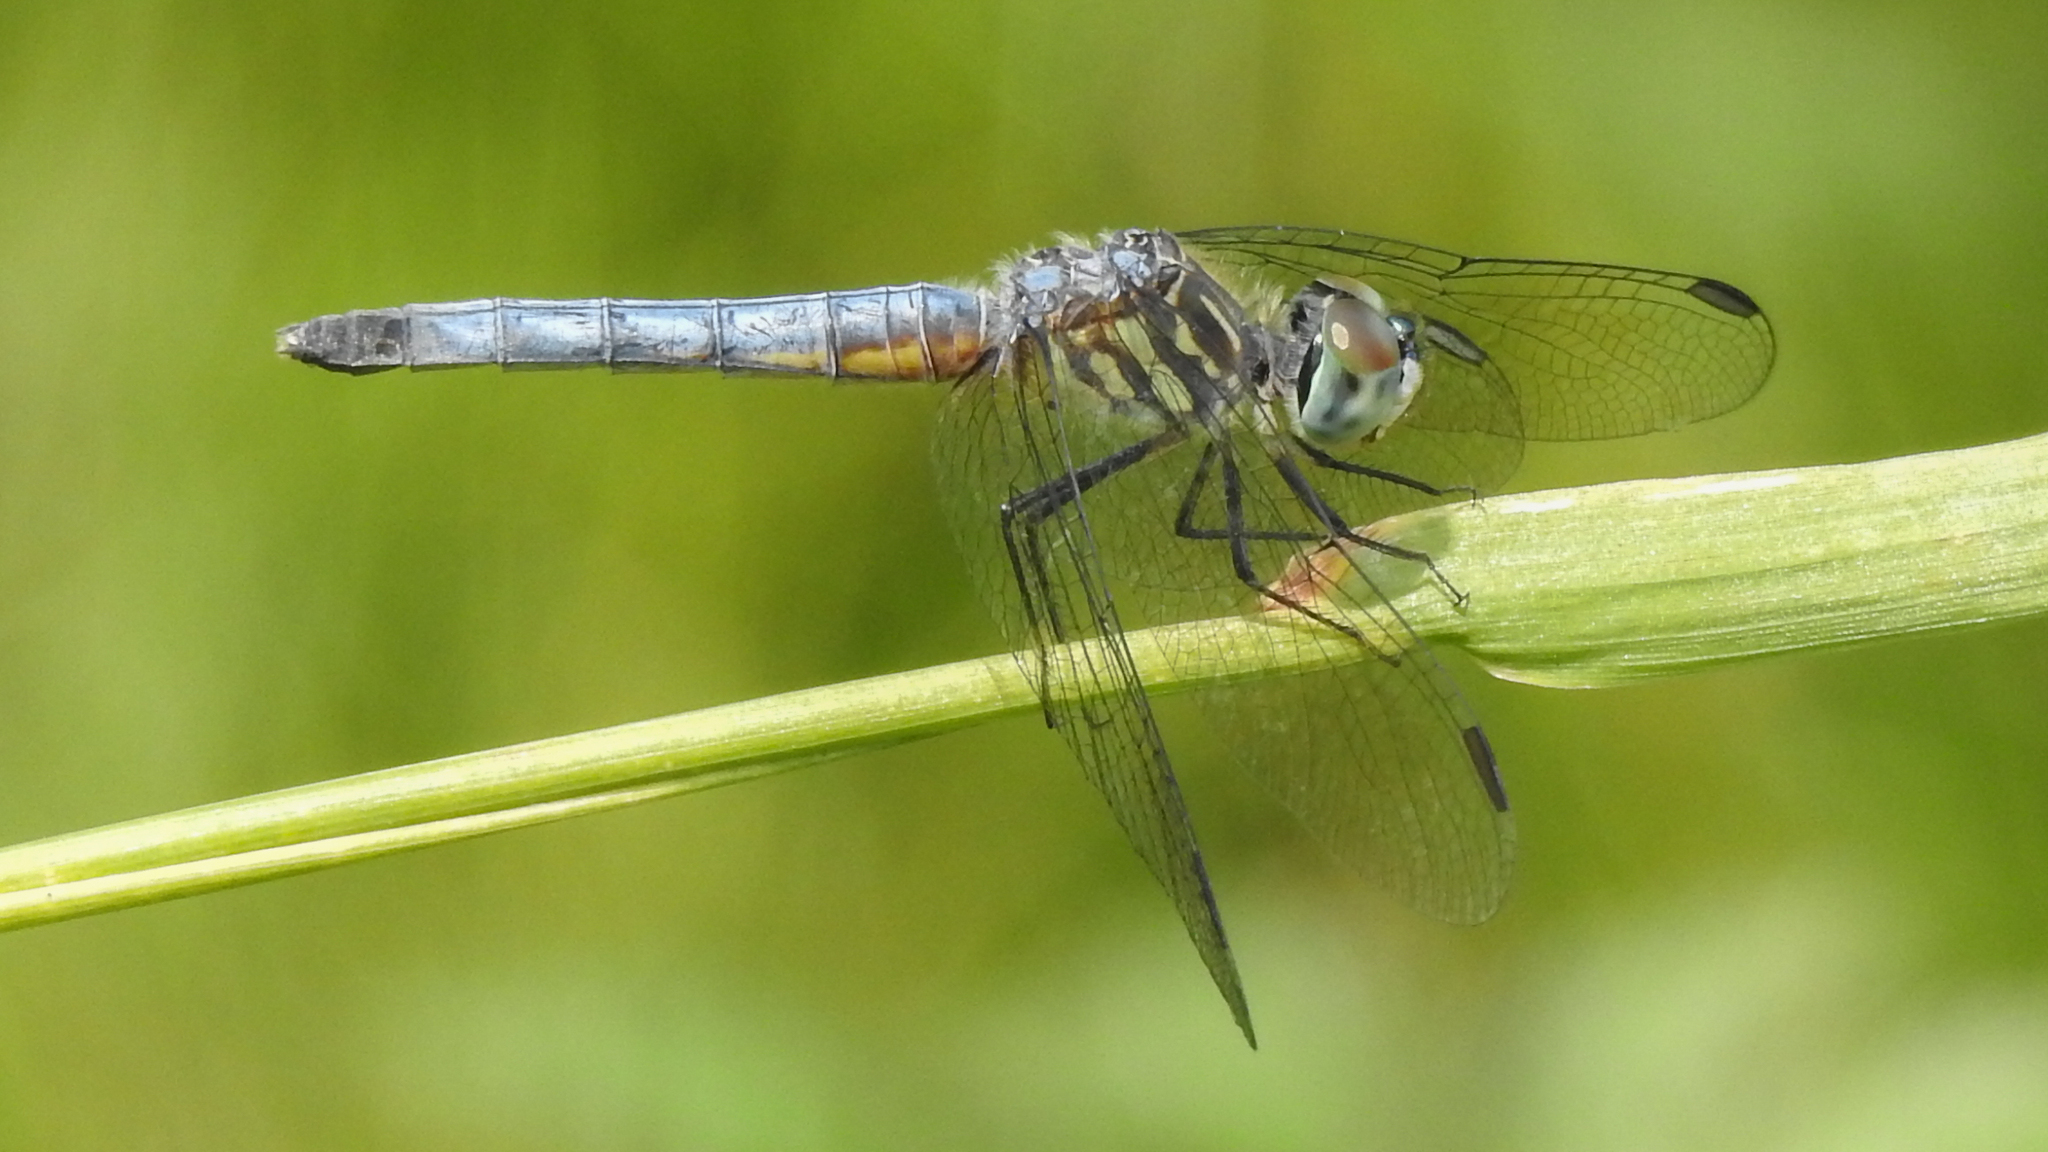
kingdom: Animalia
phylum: Arthropoda
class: Insecta
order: Odonata
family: Libellulidae
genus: Pachydiplax
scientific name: Pachydiplax longipennis
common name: Blue dasher
